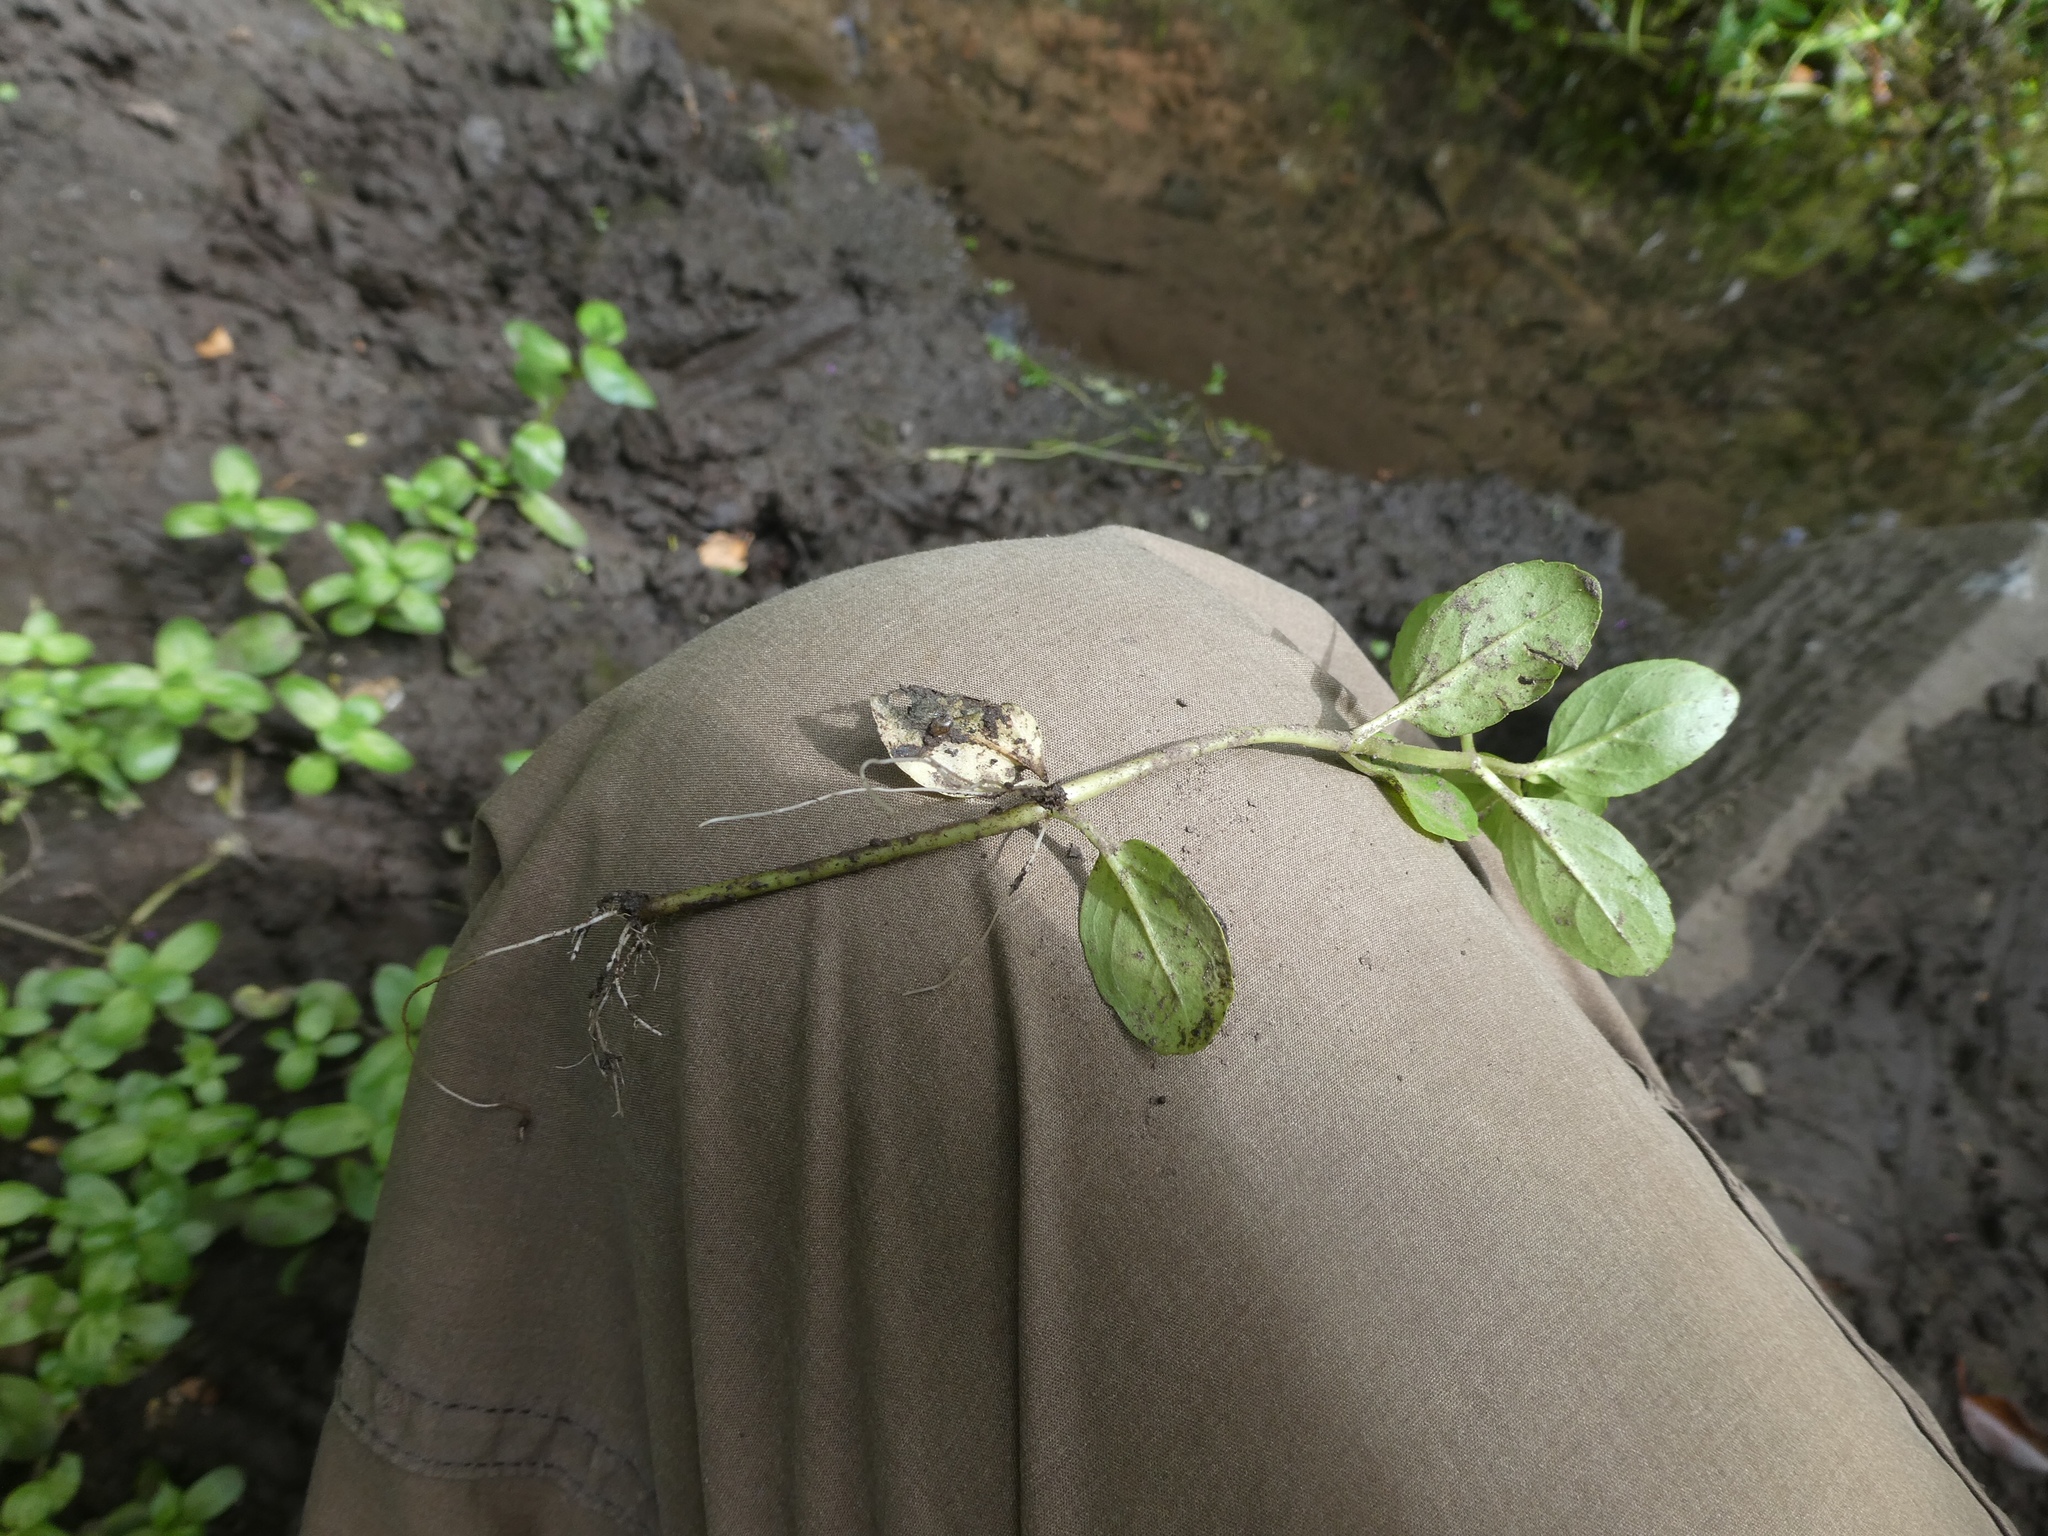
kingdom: Plantae
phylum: Tracheophyta
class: Magnoliopsida
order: Lamiales
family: Plantaginaceae
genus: Veronica
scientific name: Veronica beccabunga
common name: Brooklime
